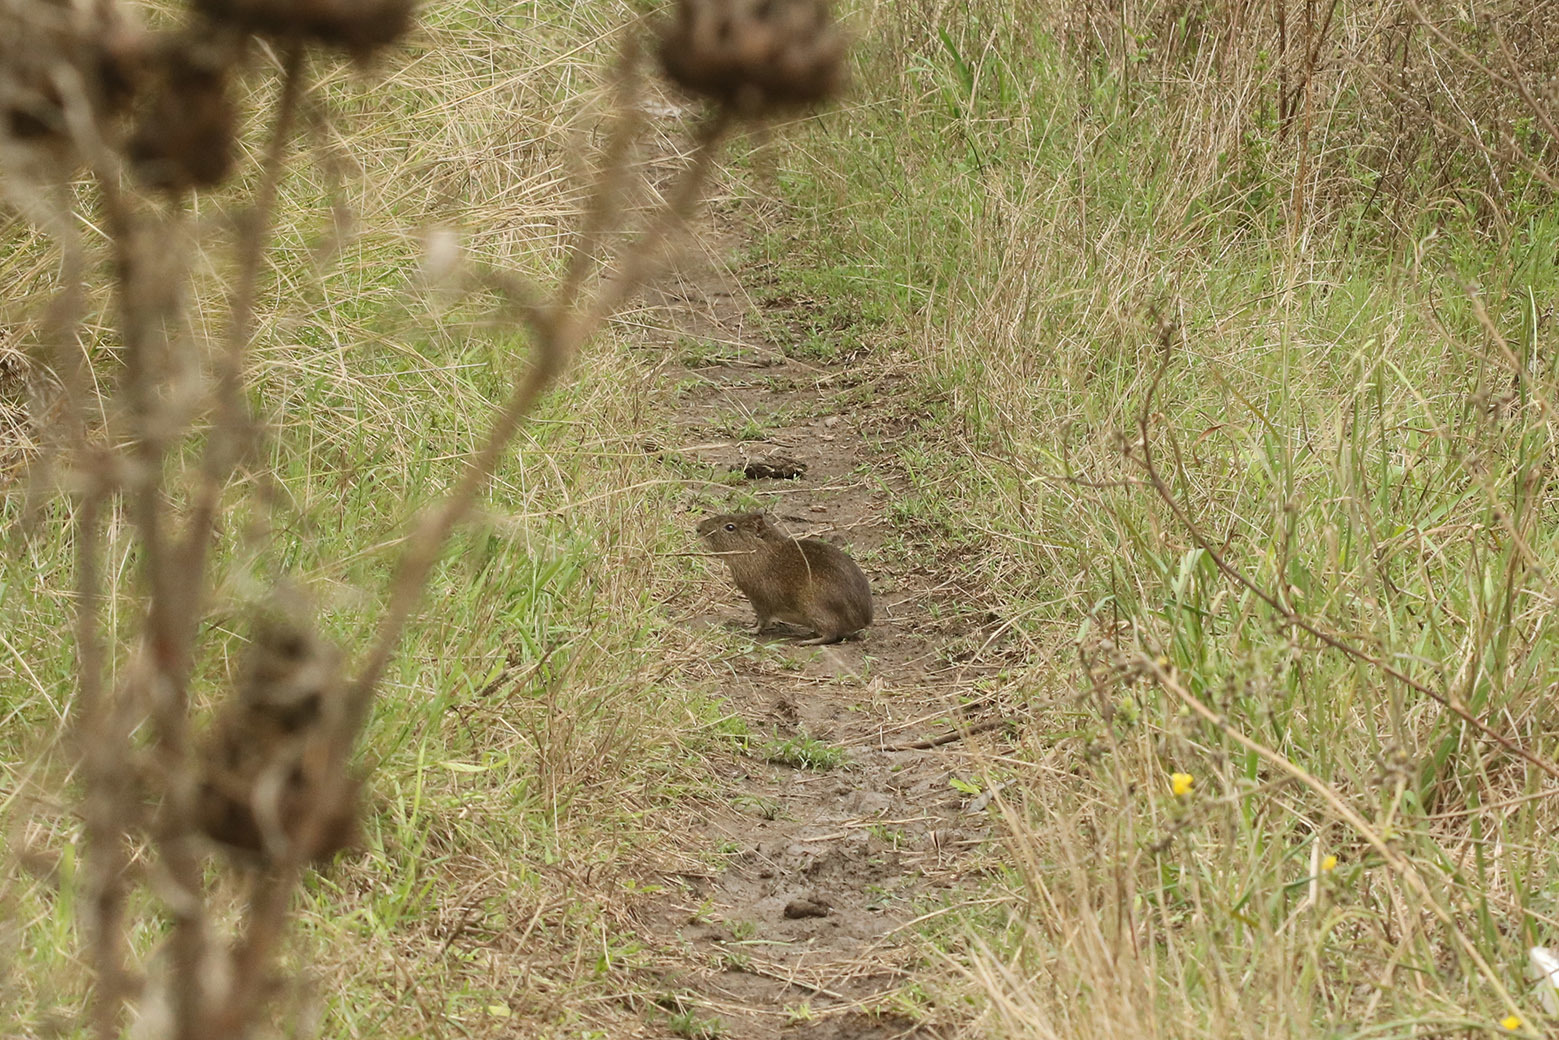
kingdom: Animalia
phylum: Chordata
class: Mammalia
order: Rodentia
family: Caviidae
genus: Cavia
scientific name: Cavia aperea
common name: Brazilian guinea pig
